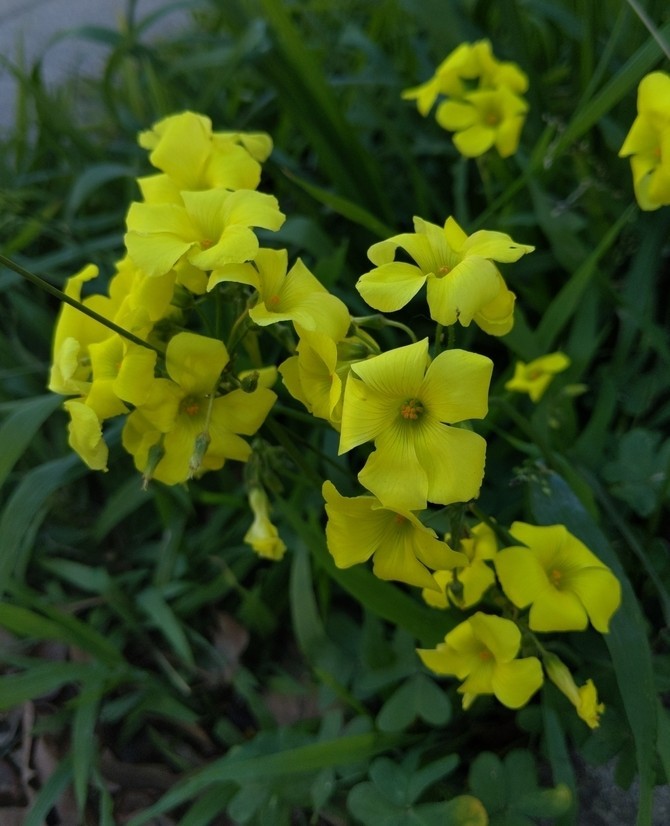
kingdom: Plantae
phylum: Tracheophyta
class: Magnoliopsida
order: Oxalidales
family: Oxalidaceae
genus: Oxalis
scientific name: Oxalis pes-caprae
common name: Bermuda-buttercup
